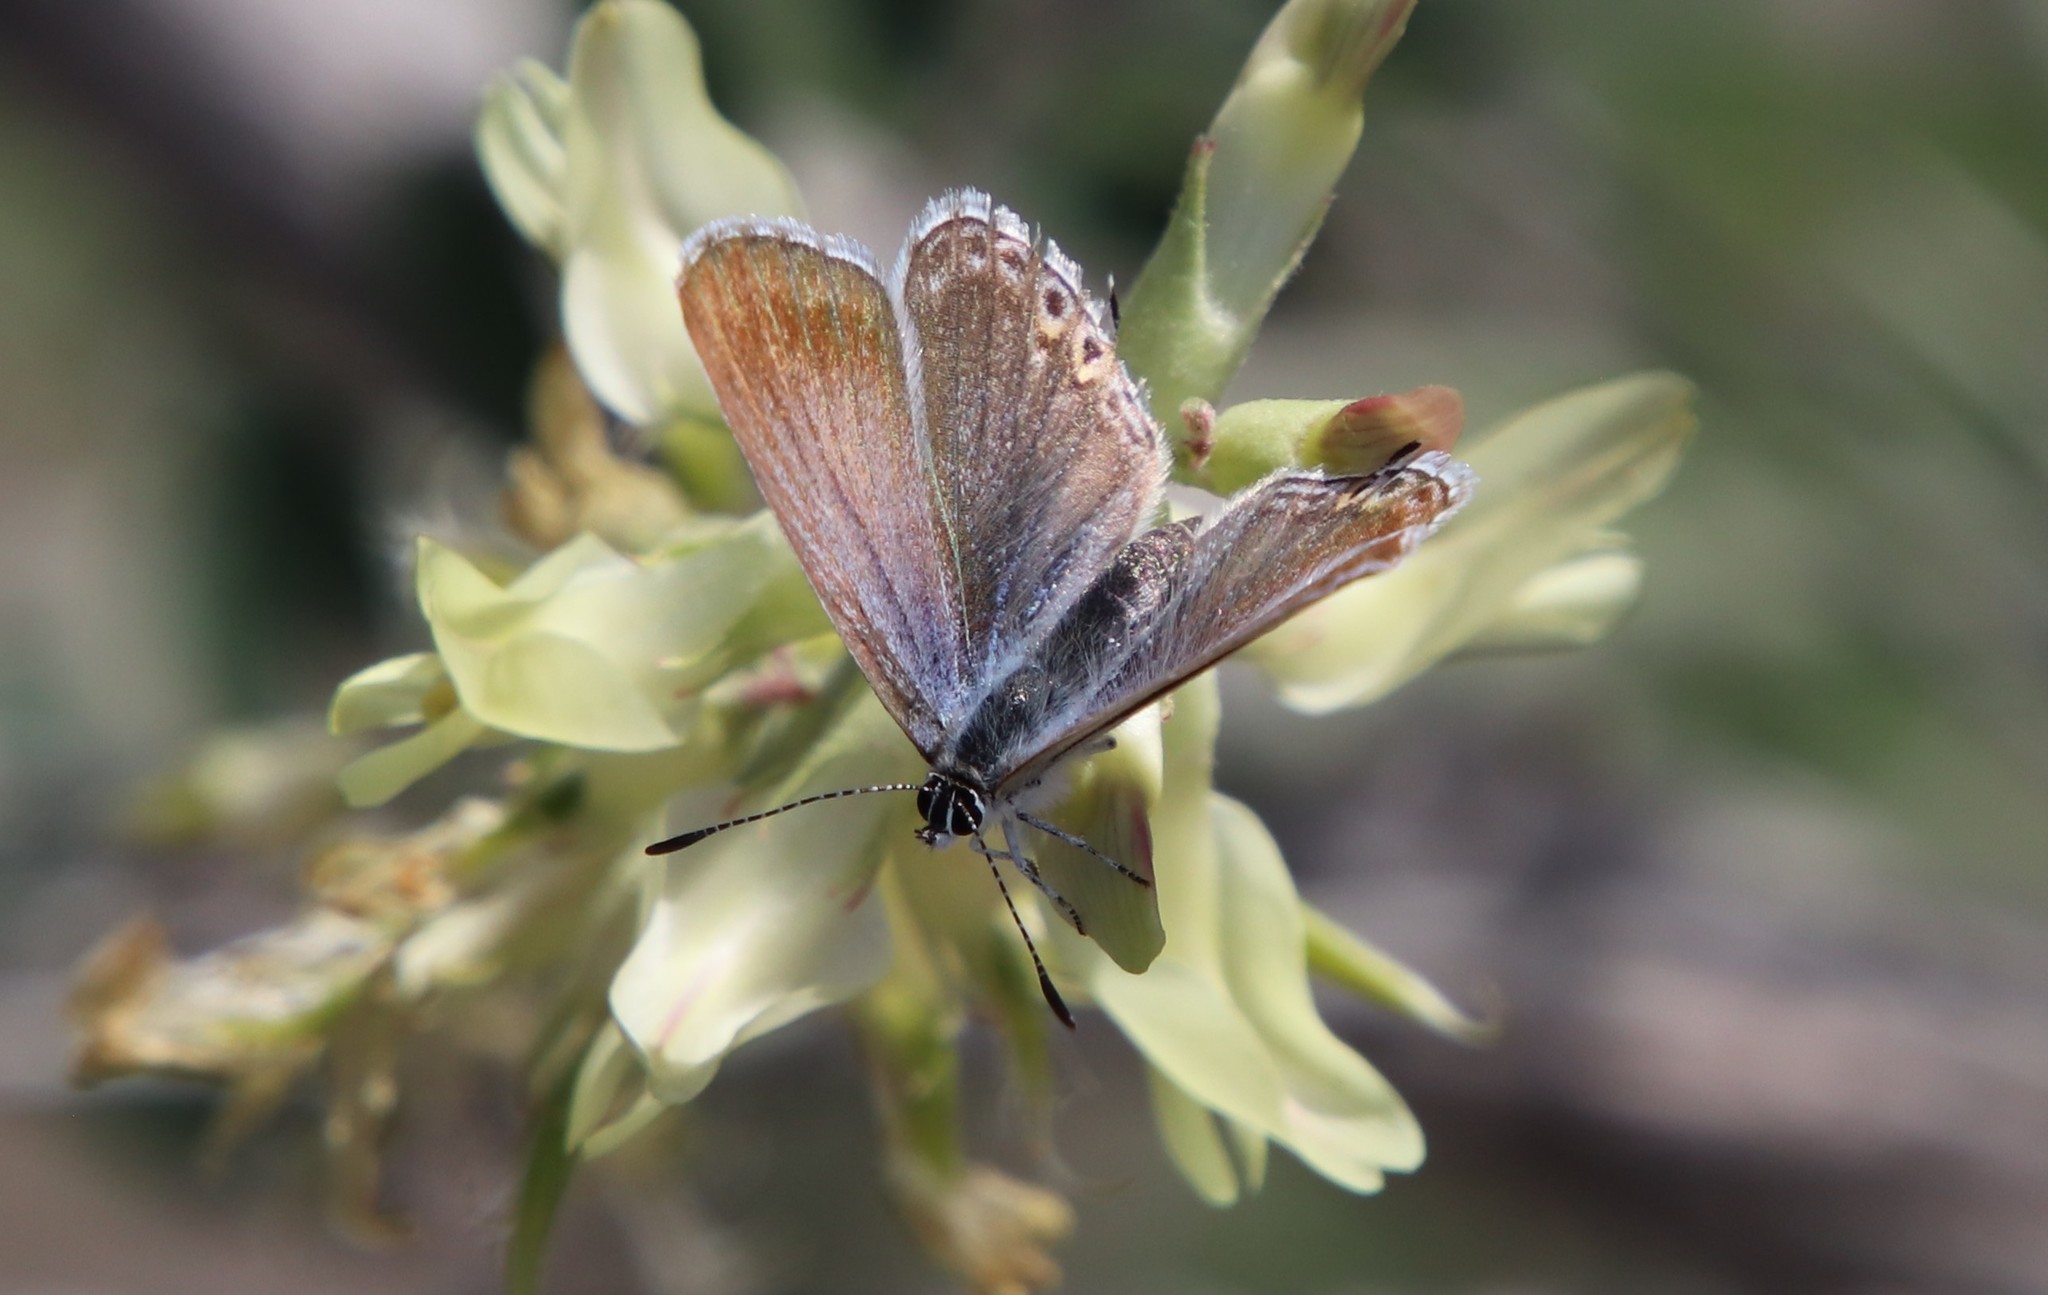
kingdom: Animalia
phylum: Arthropoda
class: Insecta
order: Lepidoptera
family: Lycaenidae
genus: Elkalyce
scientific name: Elkalyce amyntula
